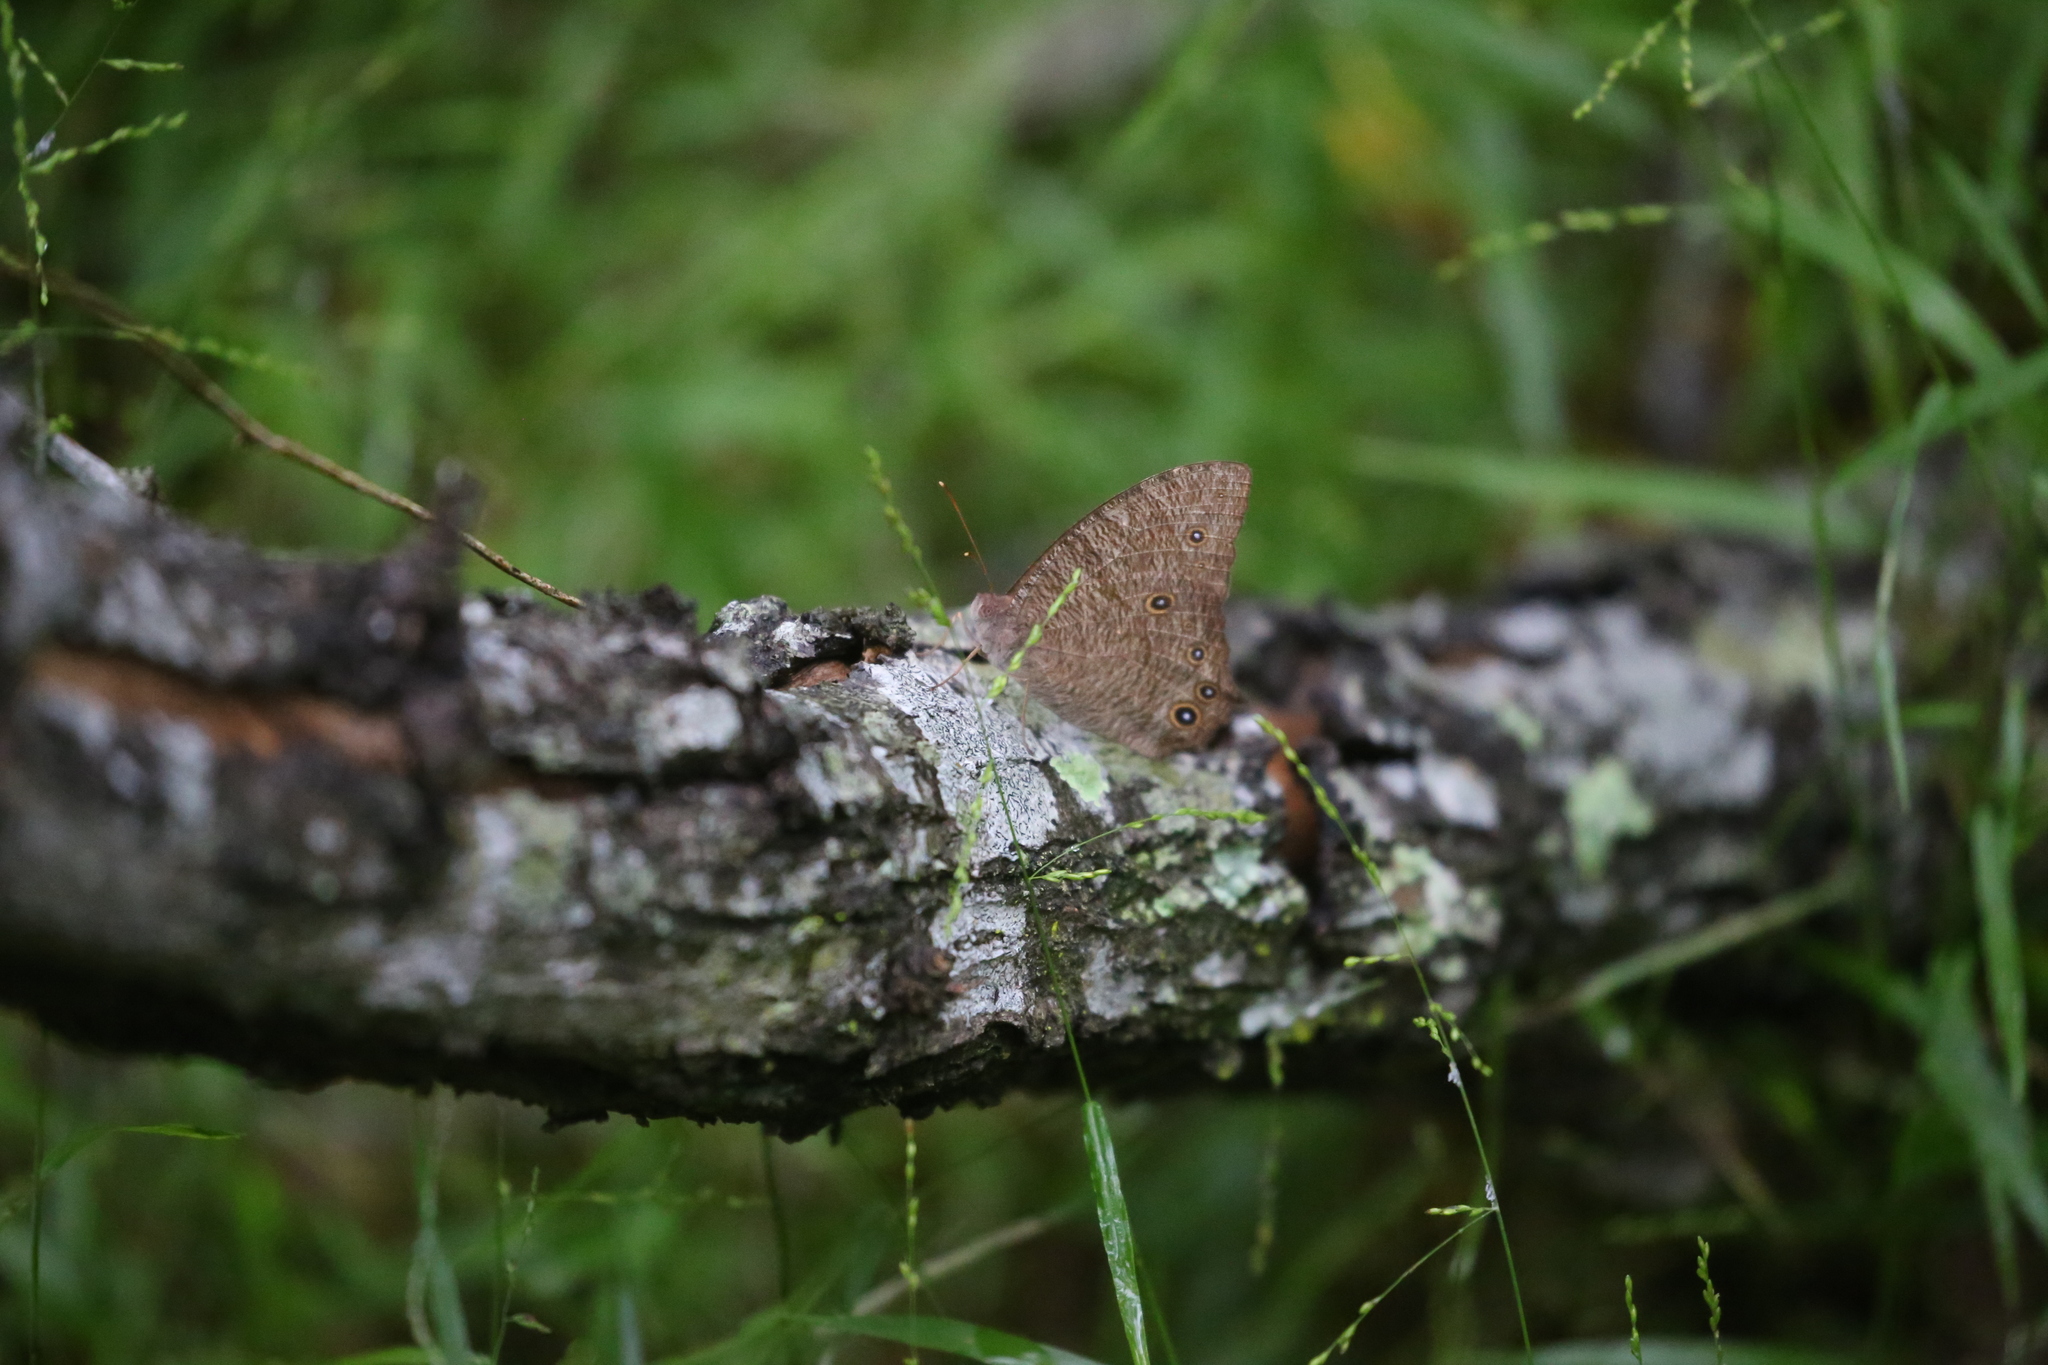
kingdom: Animalia
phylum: Arthropoda
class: Insecta
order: Lepidoptera
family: Nymphalidae
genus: Melanitis
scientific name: Melanitis leda
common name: Twilight brown
